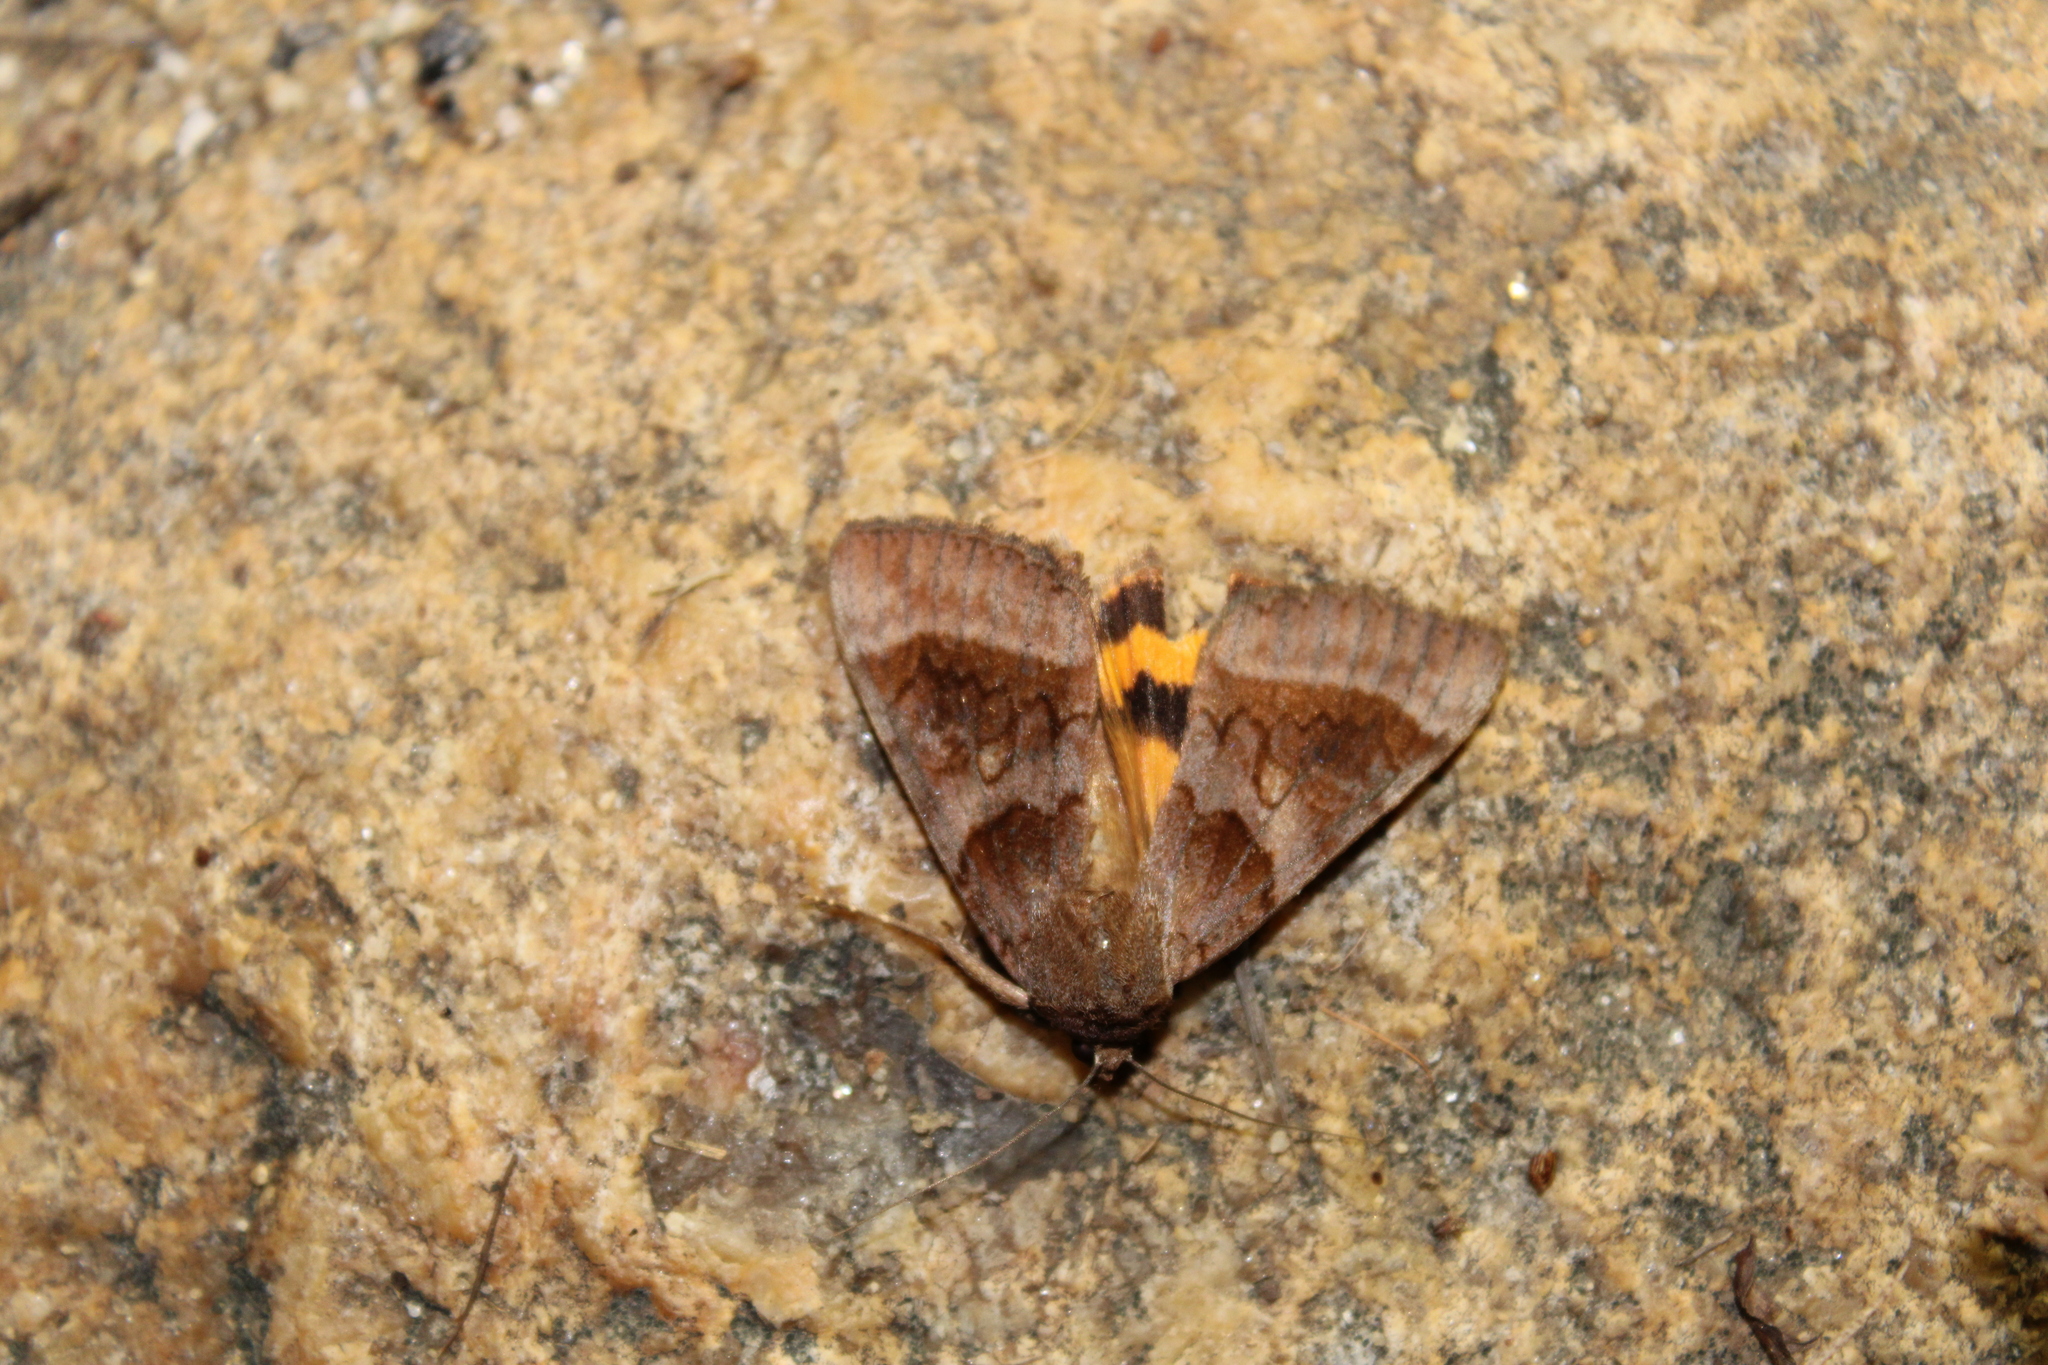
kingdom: Animalia
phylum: Arthropoda
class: Insecta
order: Lepidoptera
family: Erebidae
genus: Catocala
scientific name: Catocala badia
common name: Bay underwing
